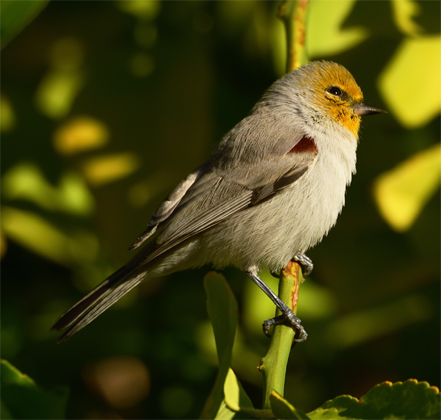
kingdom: Animalia
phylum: Chordata
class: Aves
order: Passeriformes
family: Remizidae
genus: Auriparus
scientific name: Auriparus flaviceps
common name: Verdin
